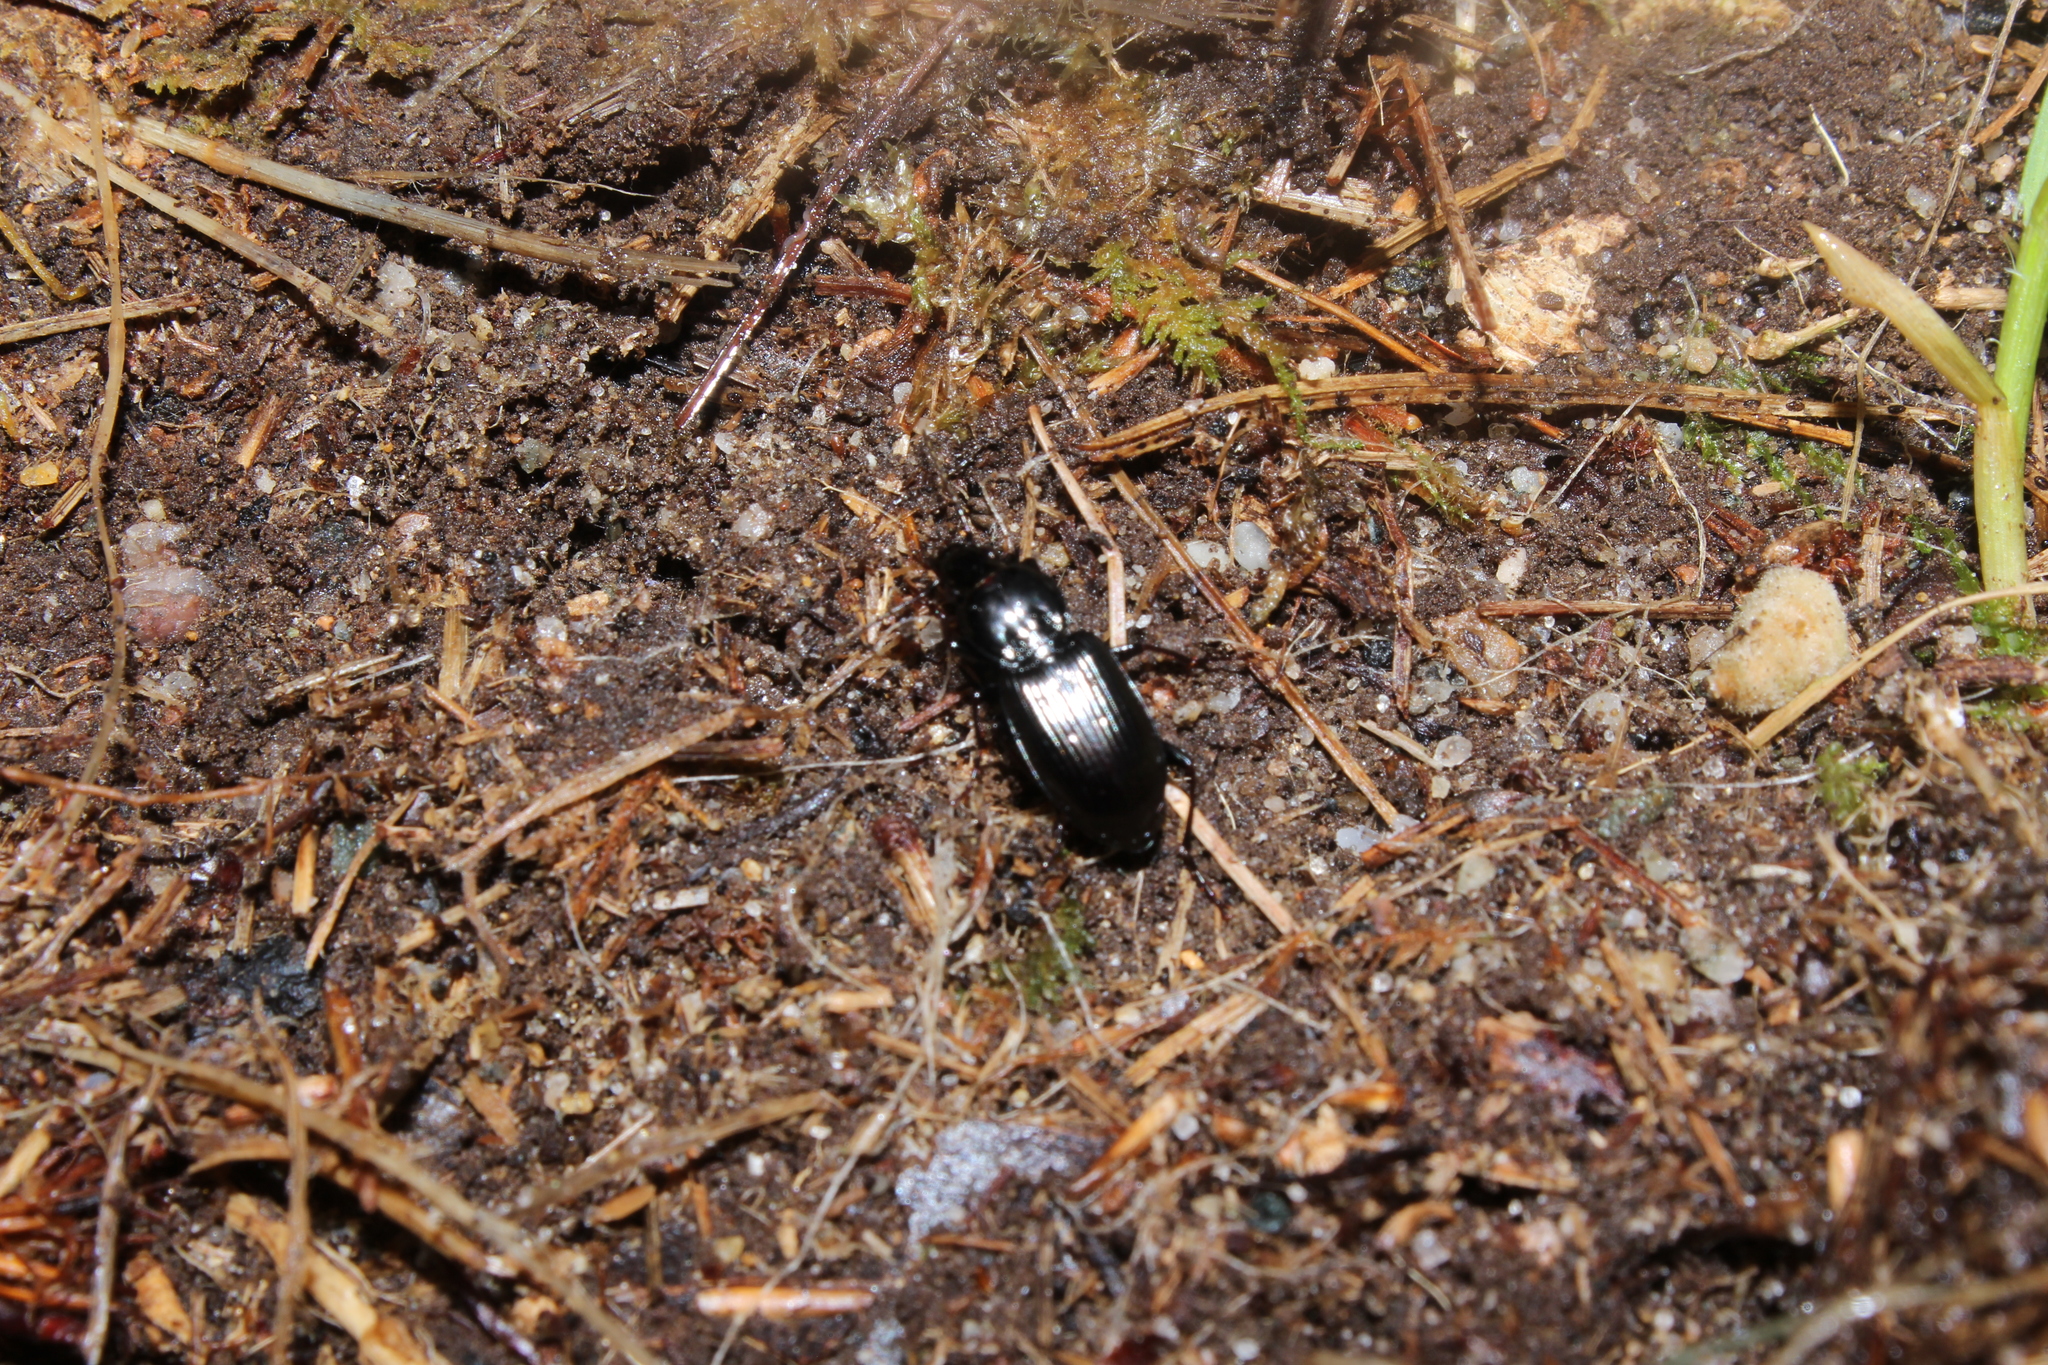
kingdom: Animalia
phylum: Arthropoda
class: Insecta
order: Coleoptera
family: Carabidae
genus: Pterostichus
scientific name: Pterostichus
